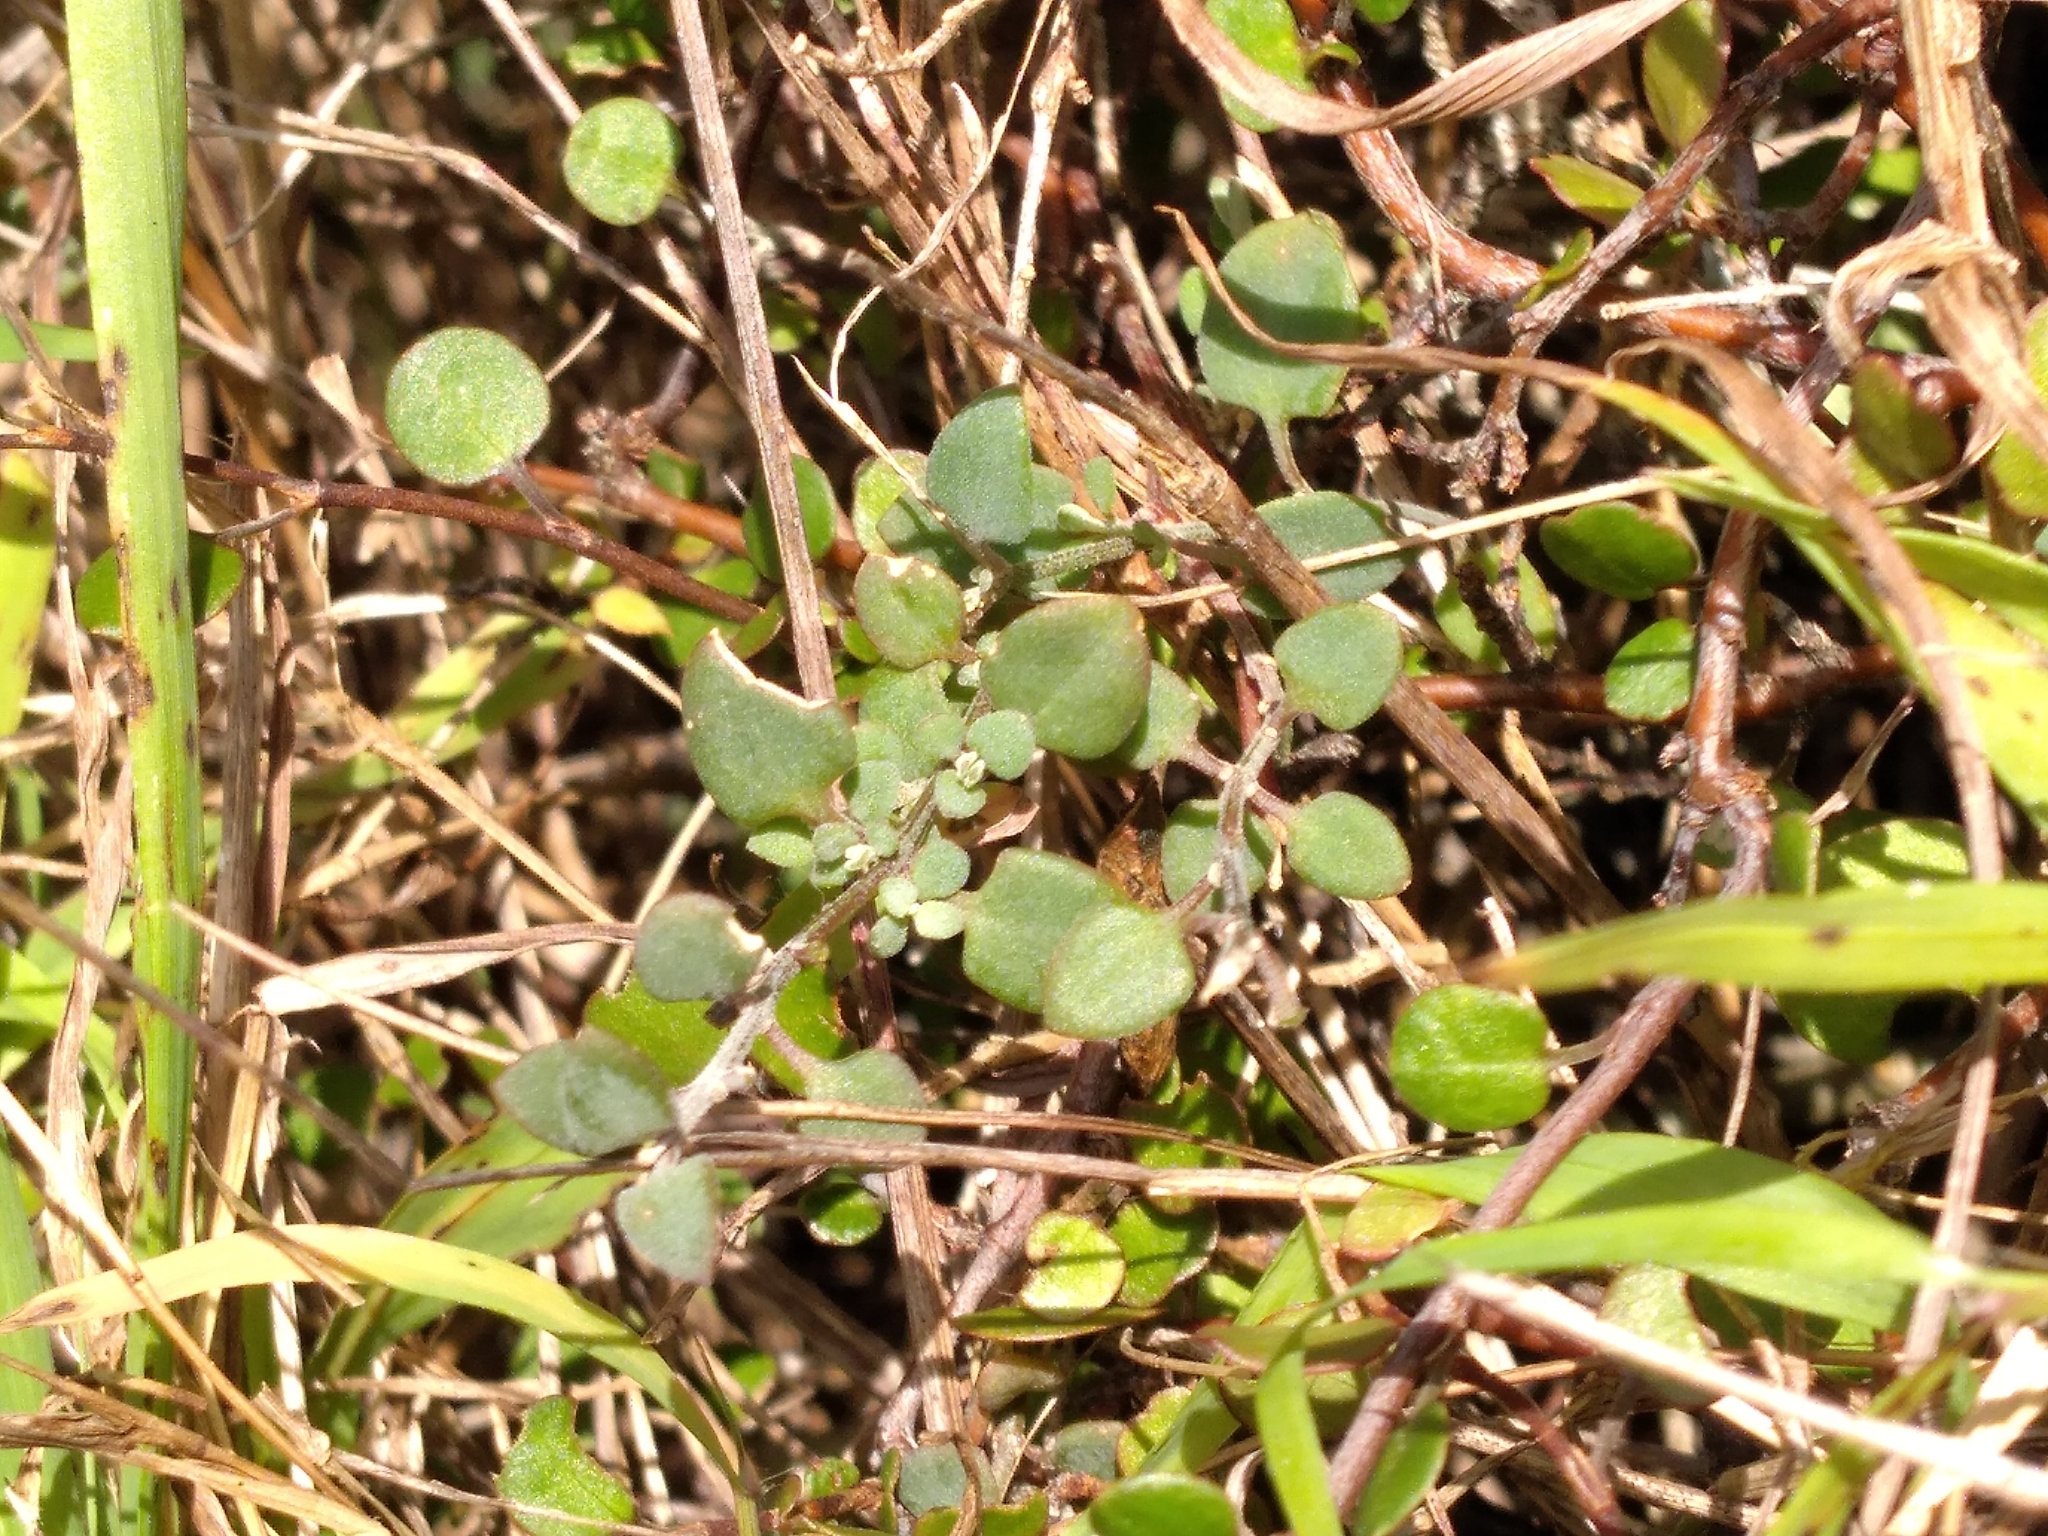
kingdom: Plantae
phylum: Tracheophyta
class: Magnoliopsida
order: Caryophyllales
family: Amaranthaceae
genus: Chenopodium
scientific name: Chenopodium triandrum
